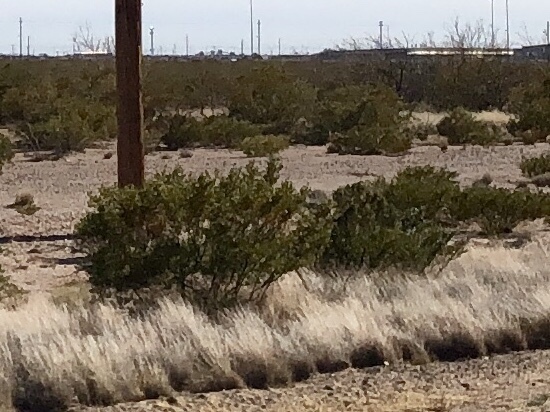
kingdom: Plantae
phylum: Tracheophyta
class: Magnoliopsida
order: Zygophyllales
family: Zygophyllaceae
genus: Larrea
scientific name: Larrea tridentata
